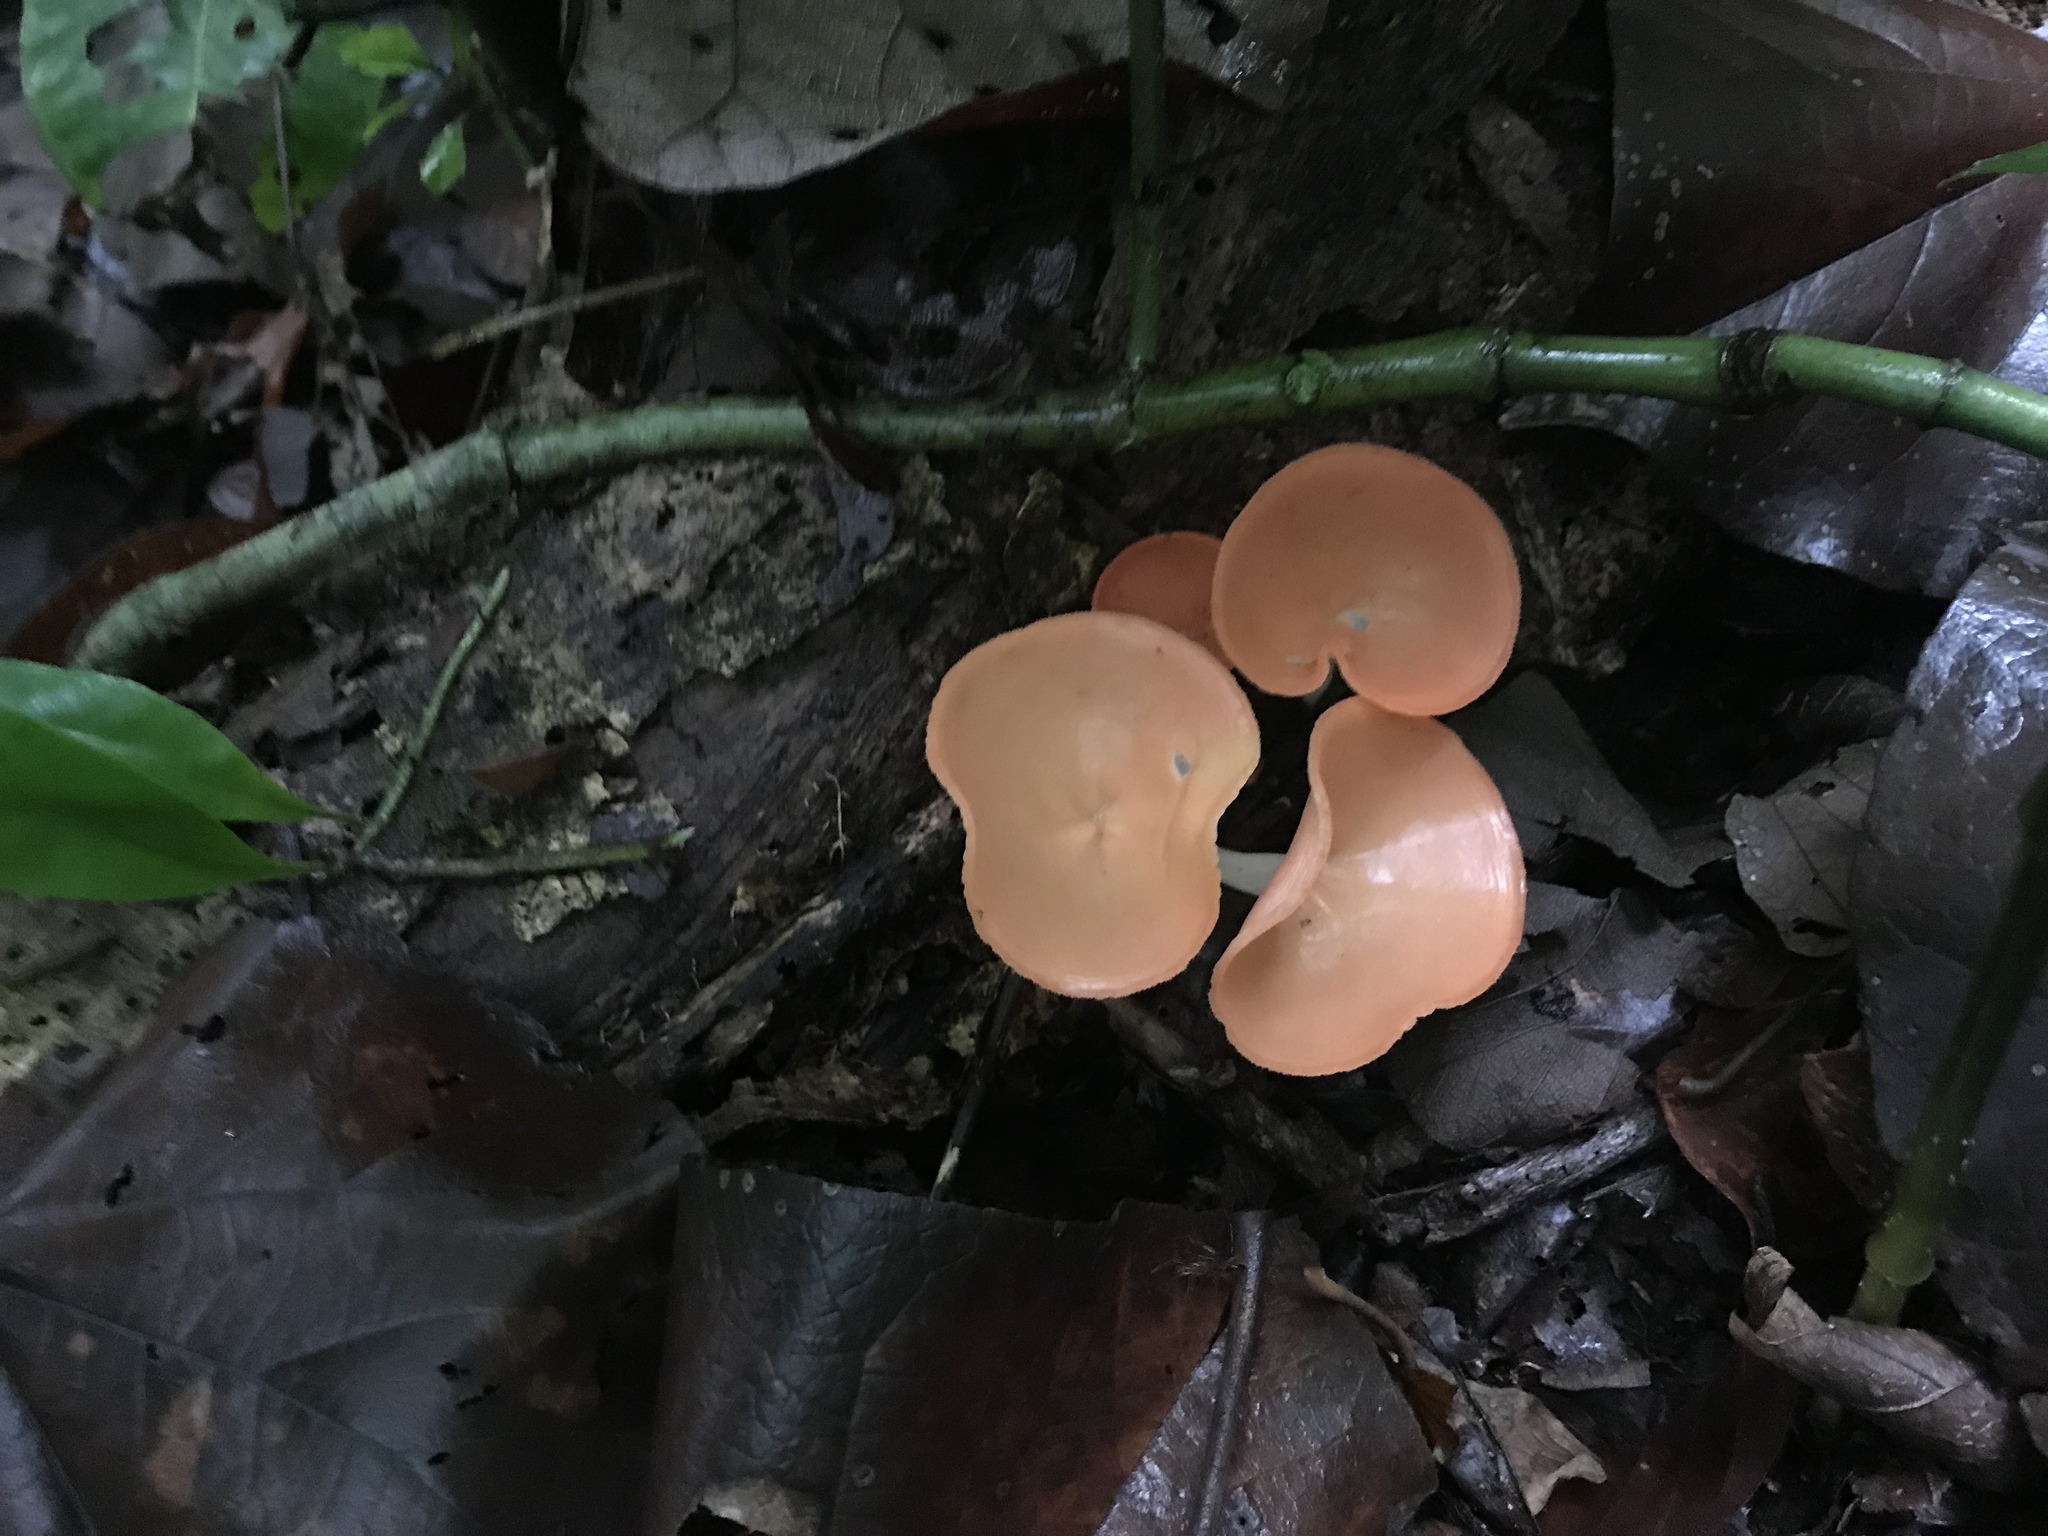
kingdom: Fungi
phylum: Ascomycota
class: Pezizomycetes
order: Pezizales
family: Sarcoscyphaceae
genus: Cookeina
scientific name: Cookeina speciosa
